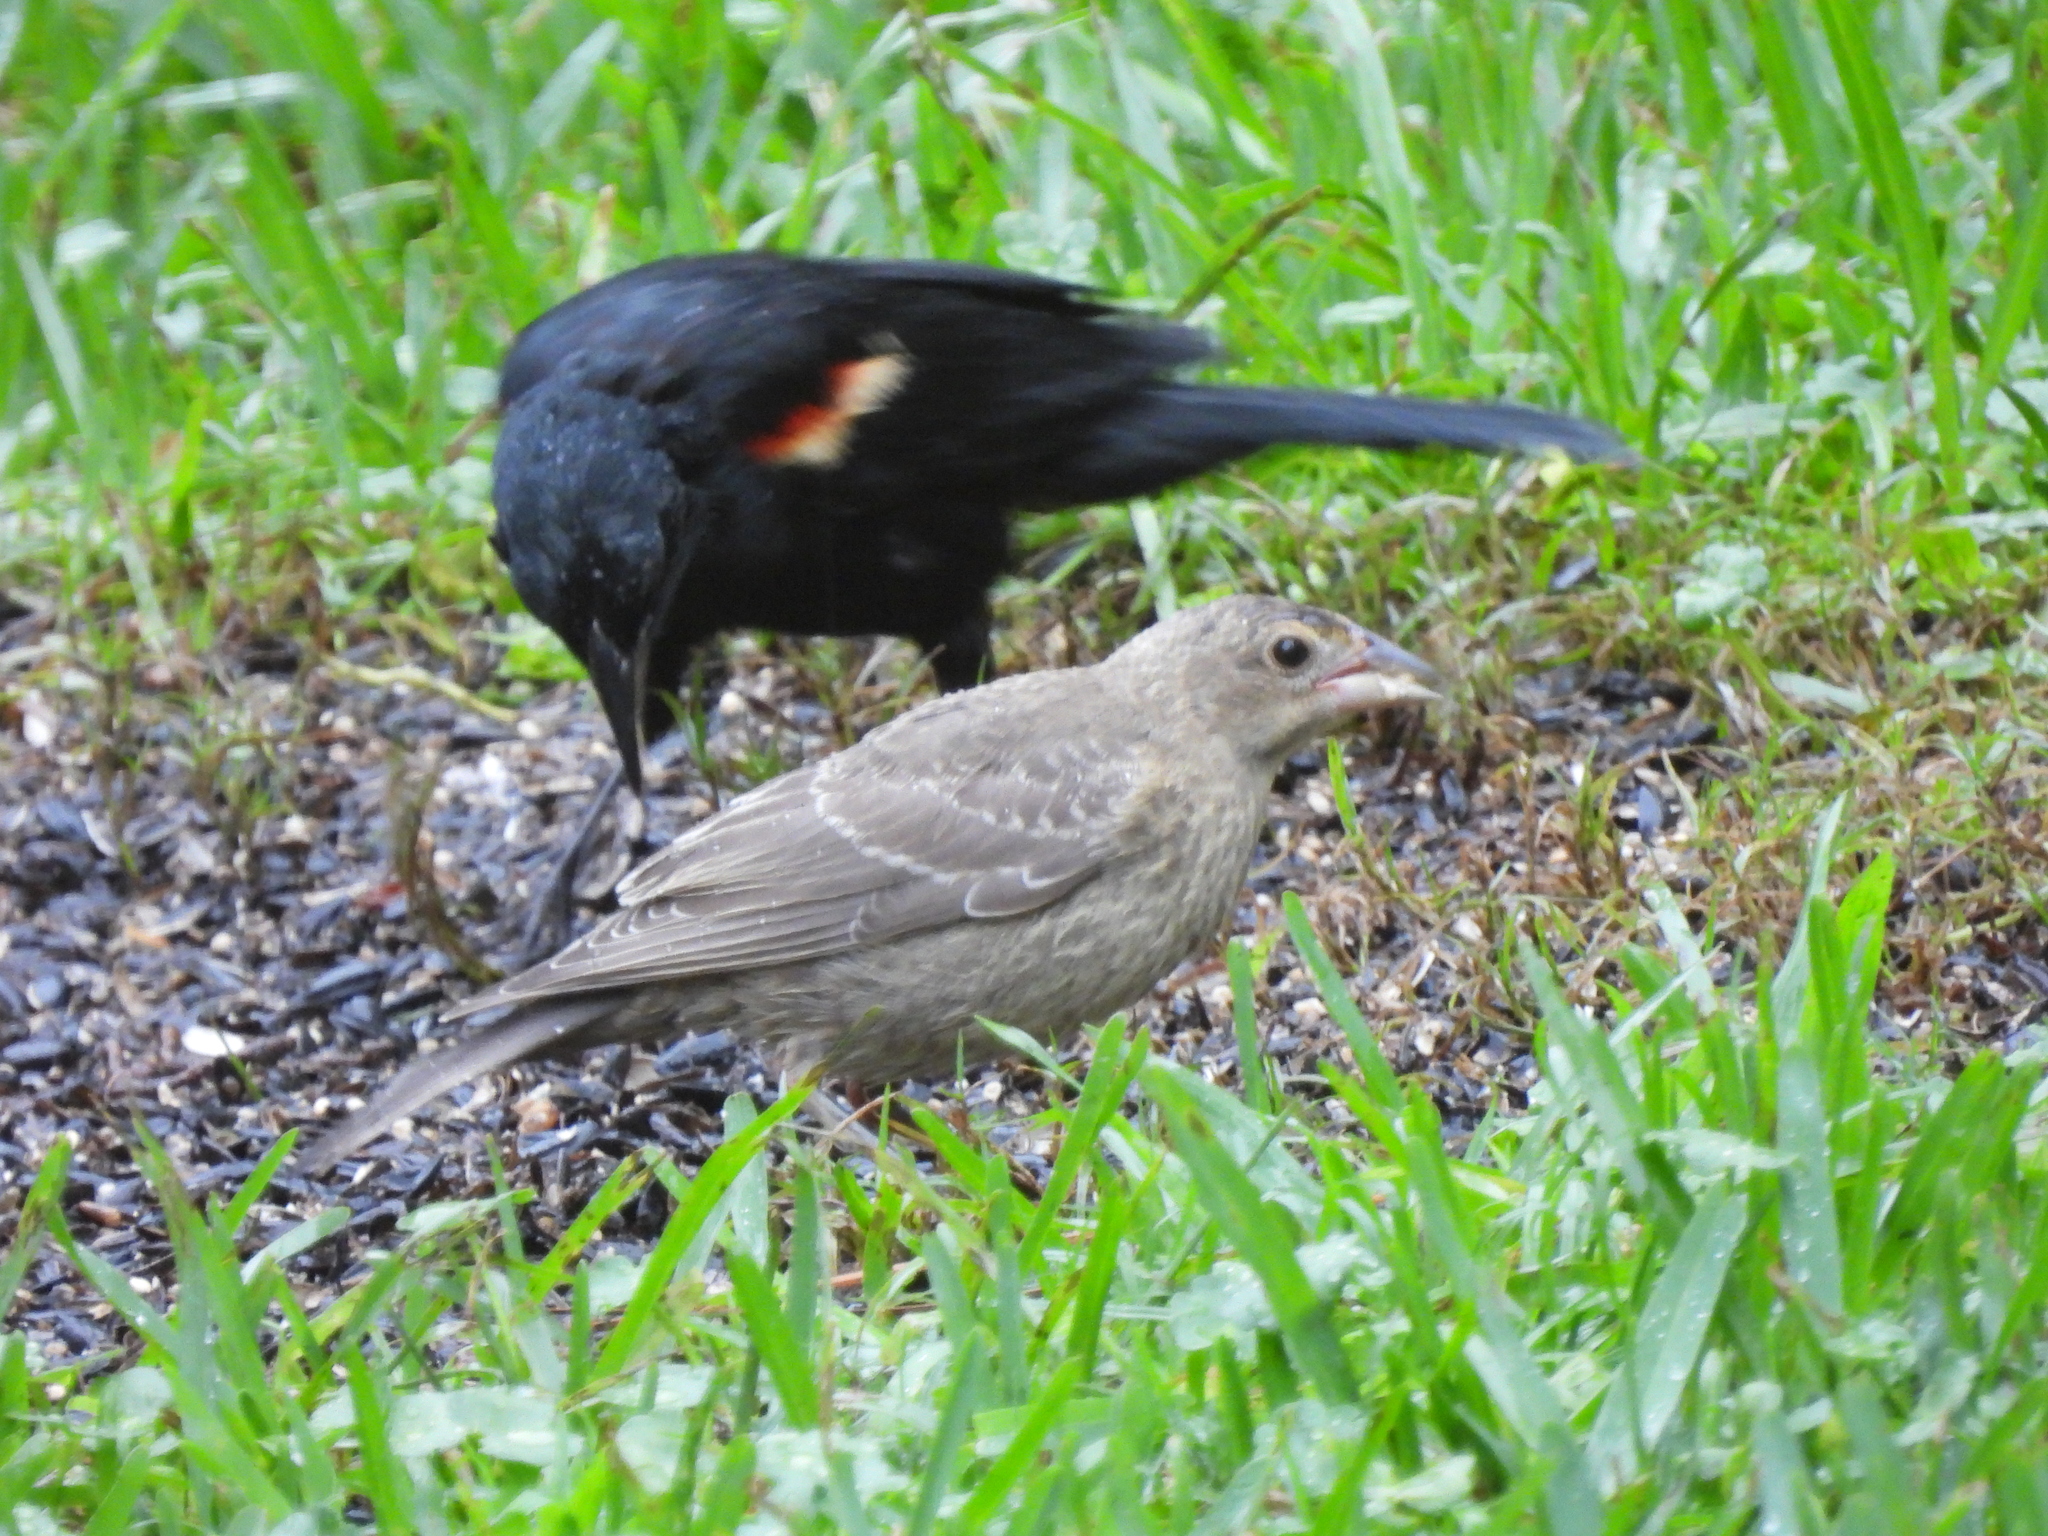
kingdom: Animalia
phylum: Chordata
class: Aves
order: Passeriformes
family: Icteridae
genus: Molothrus
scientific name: Molothrus ater
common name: Brown-headed cowbird
